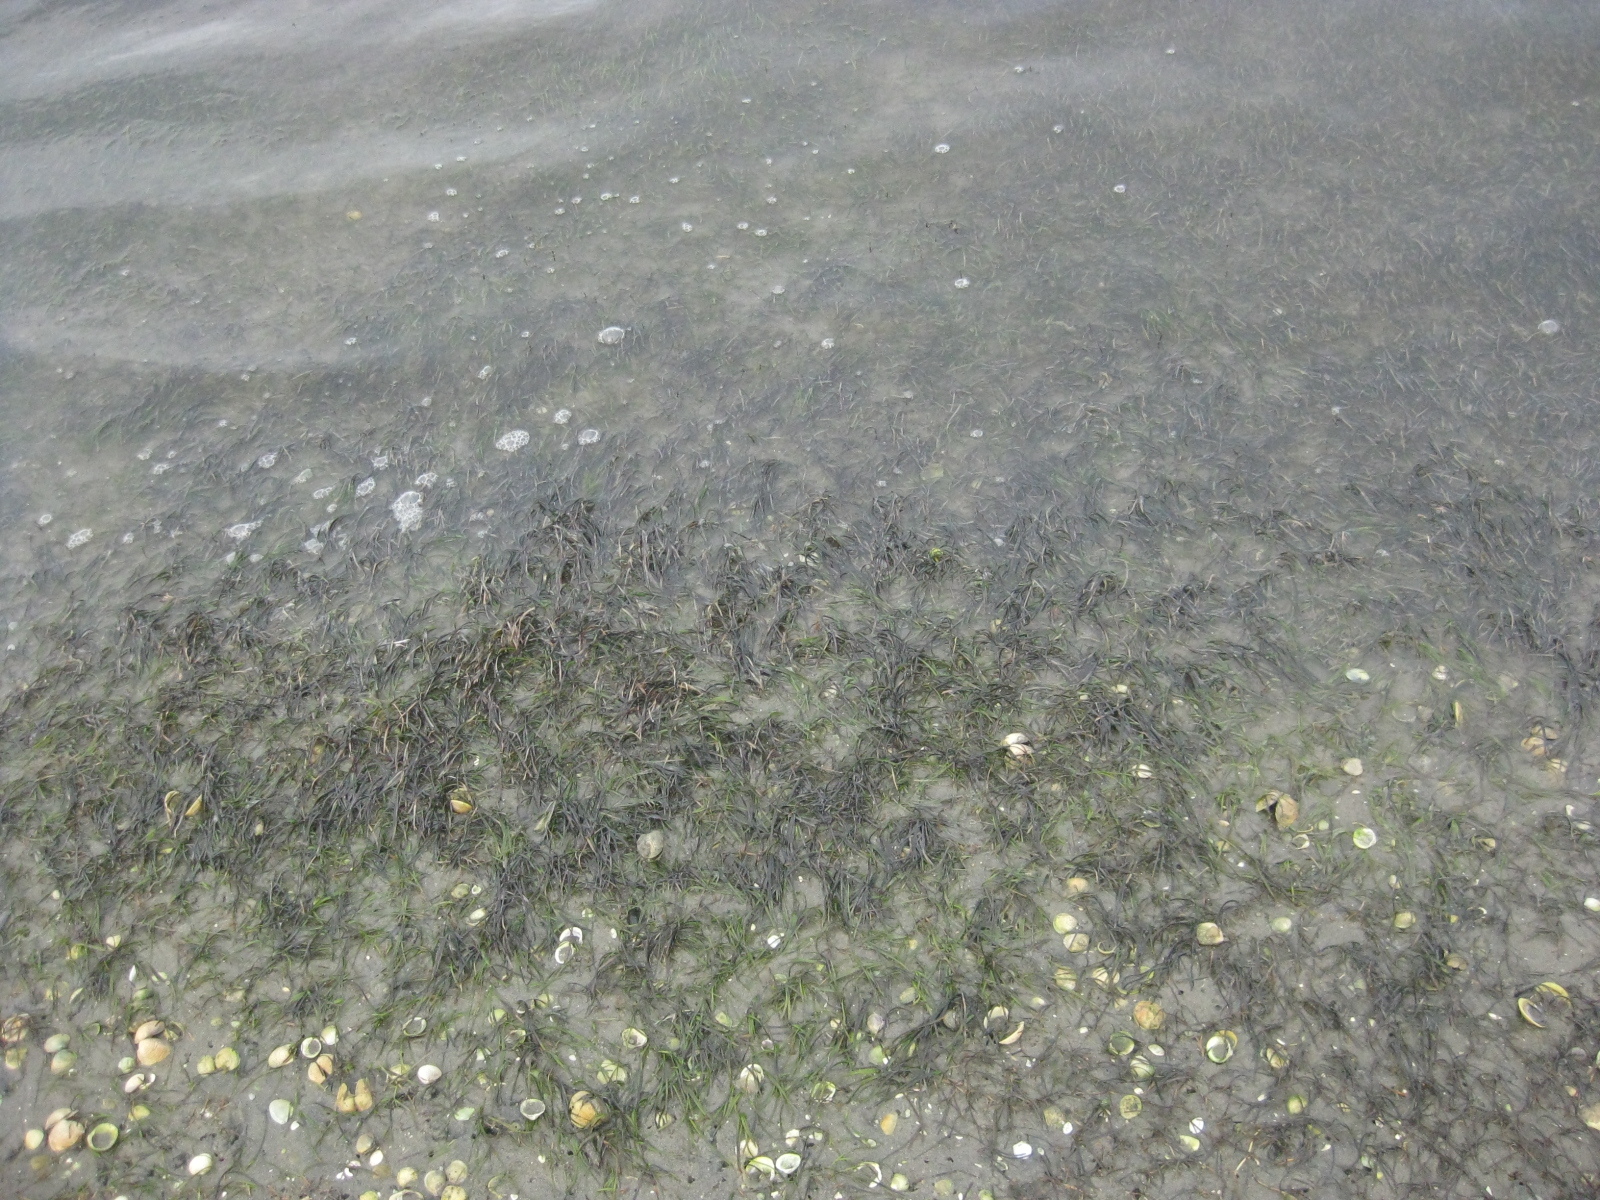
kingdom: Plantae
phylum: Tracheophyta
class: Liliopsida
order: Alismatales
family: Zosteraceae
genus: Zostera
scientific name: Zostera novazelandica
